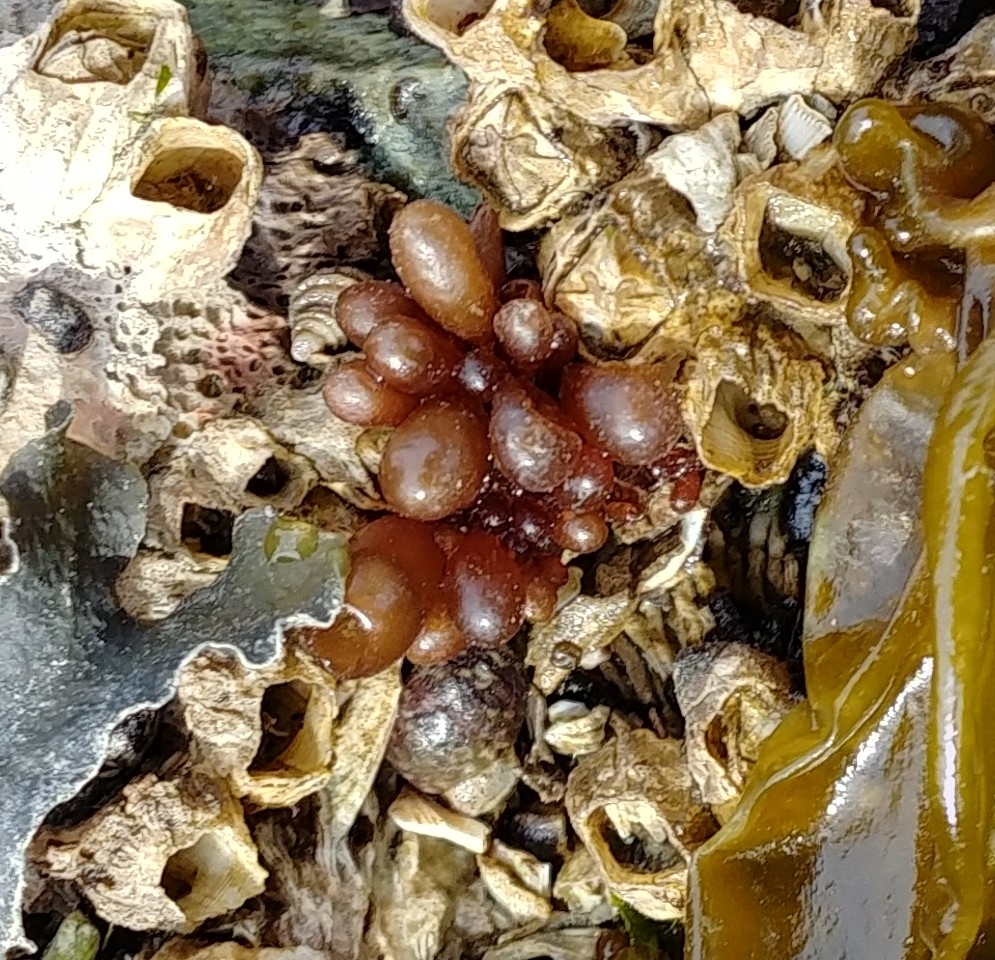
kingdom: Plantae
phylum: Rhodophyta
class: Florideophyceae
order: Palmariales
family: Palmariaceae
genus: Halosaccion
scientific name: Halosaccion glandiforme
